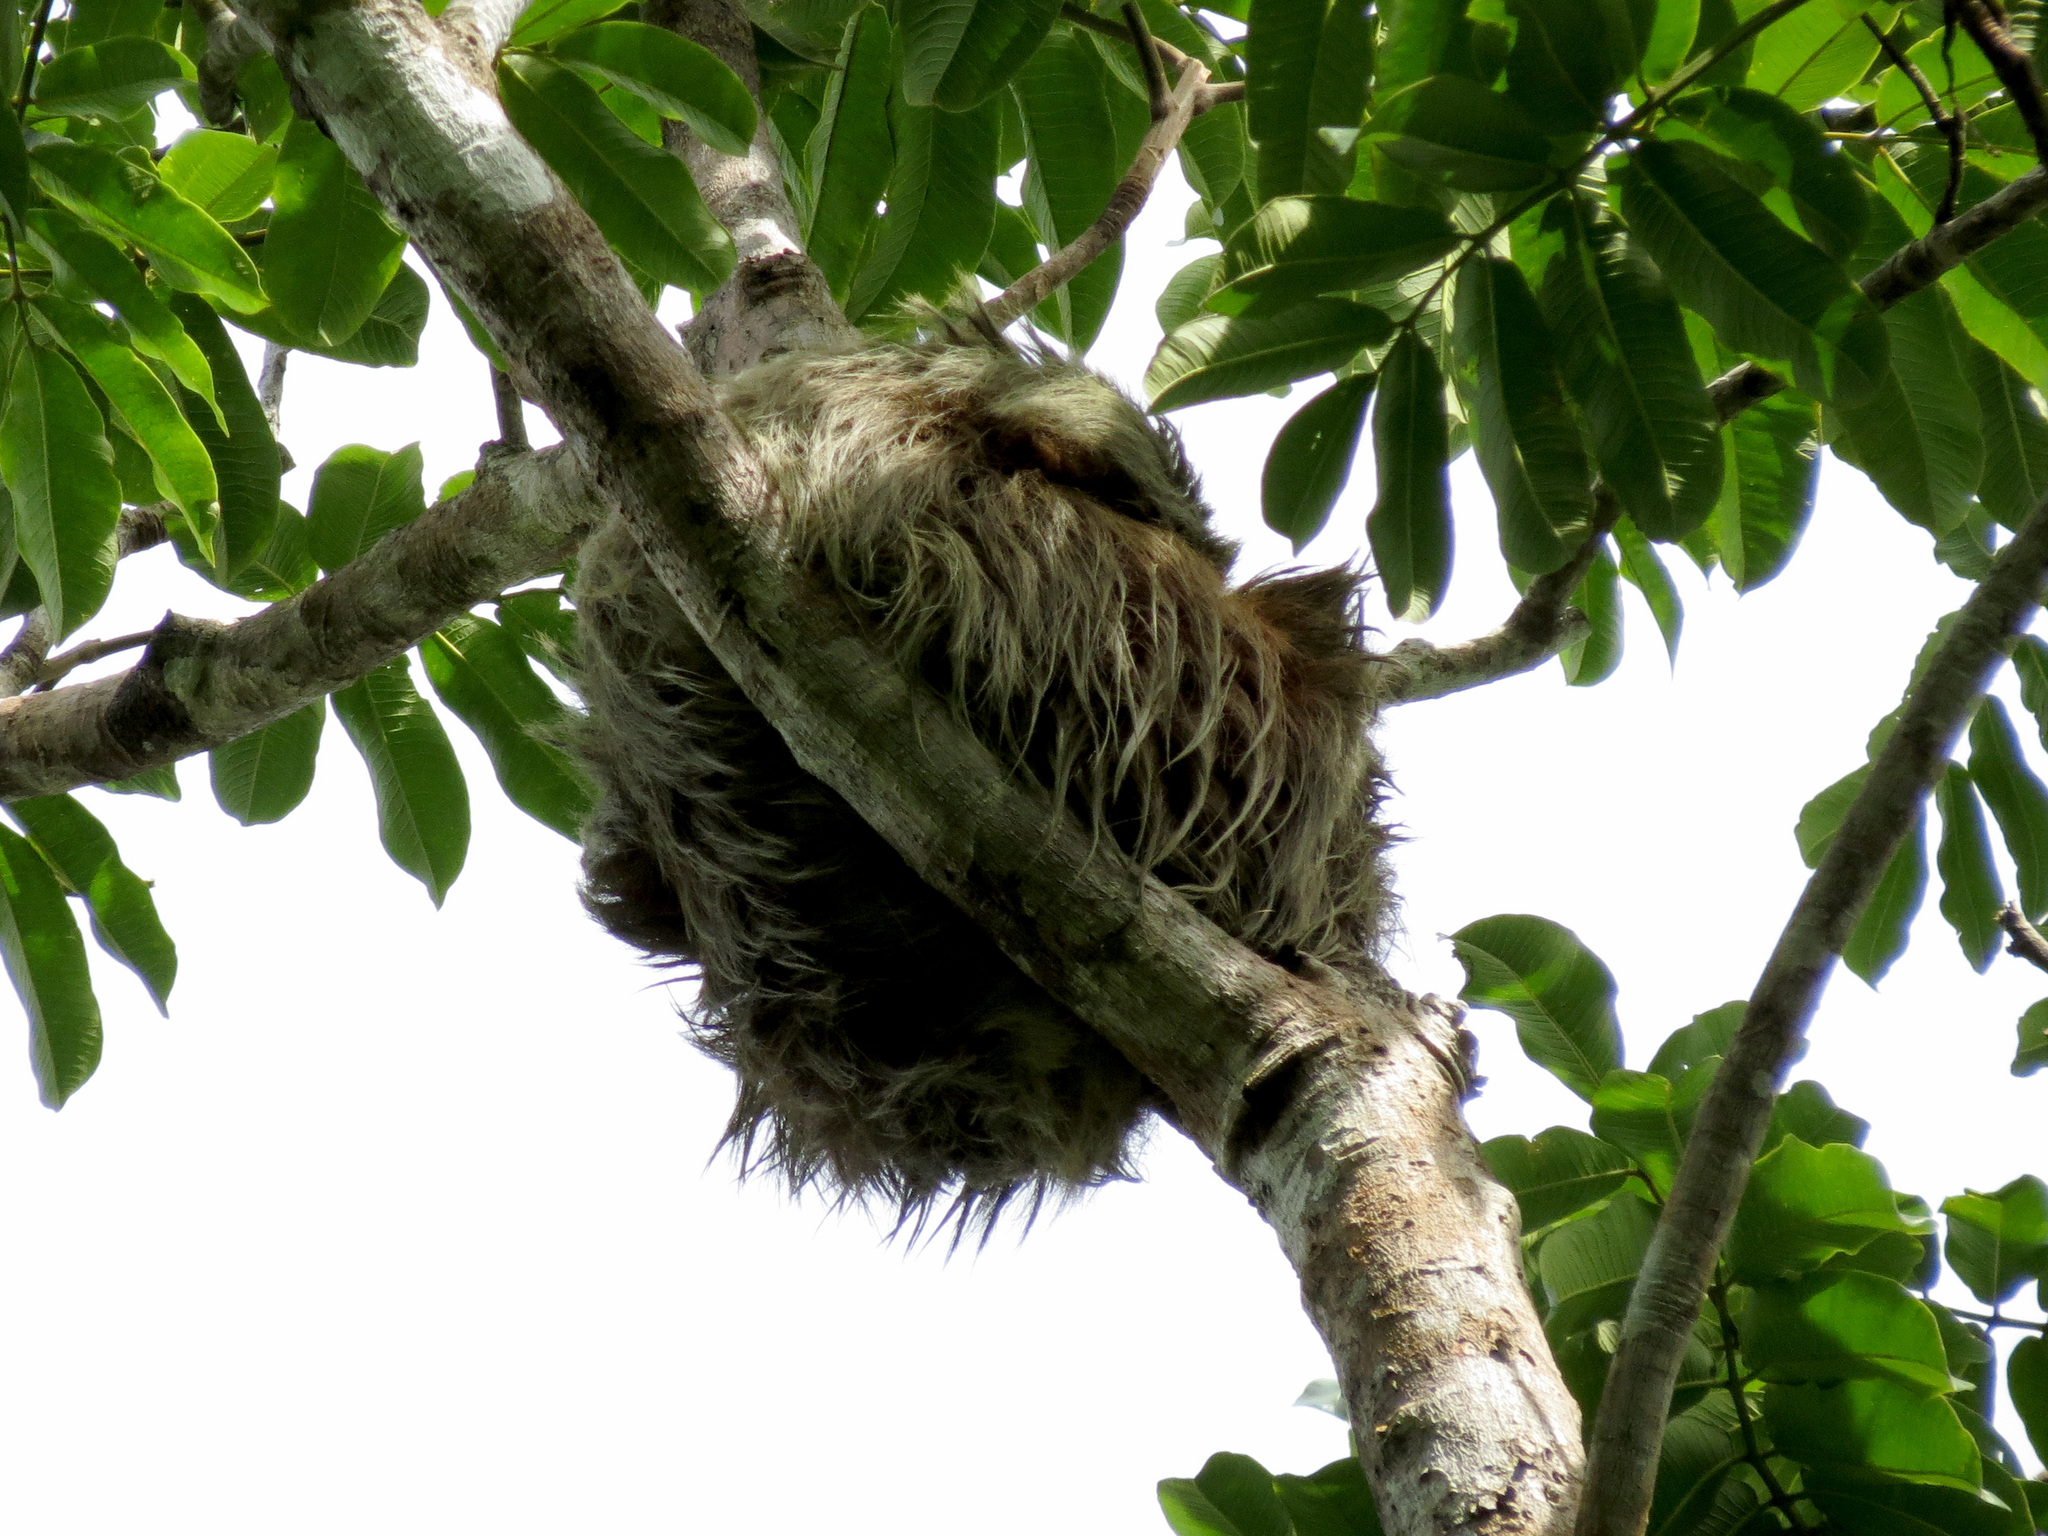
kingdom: Animalia
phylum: Chordata
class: Mammalia
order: Pilosa
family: Megalonychidae
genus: Choloepus
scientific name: Choloepus hoffmanni
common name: Hoffmann's two-toed sloth
